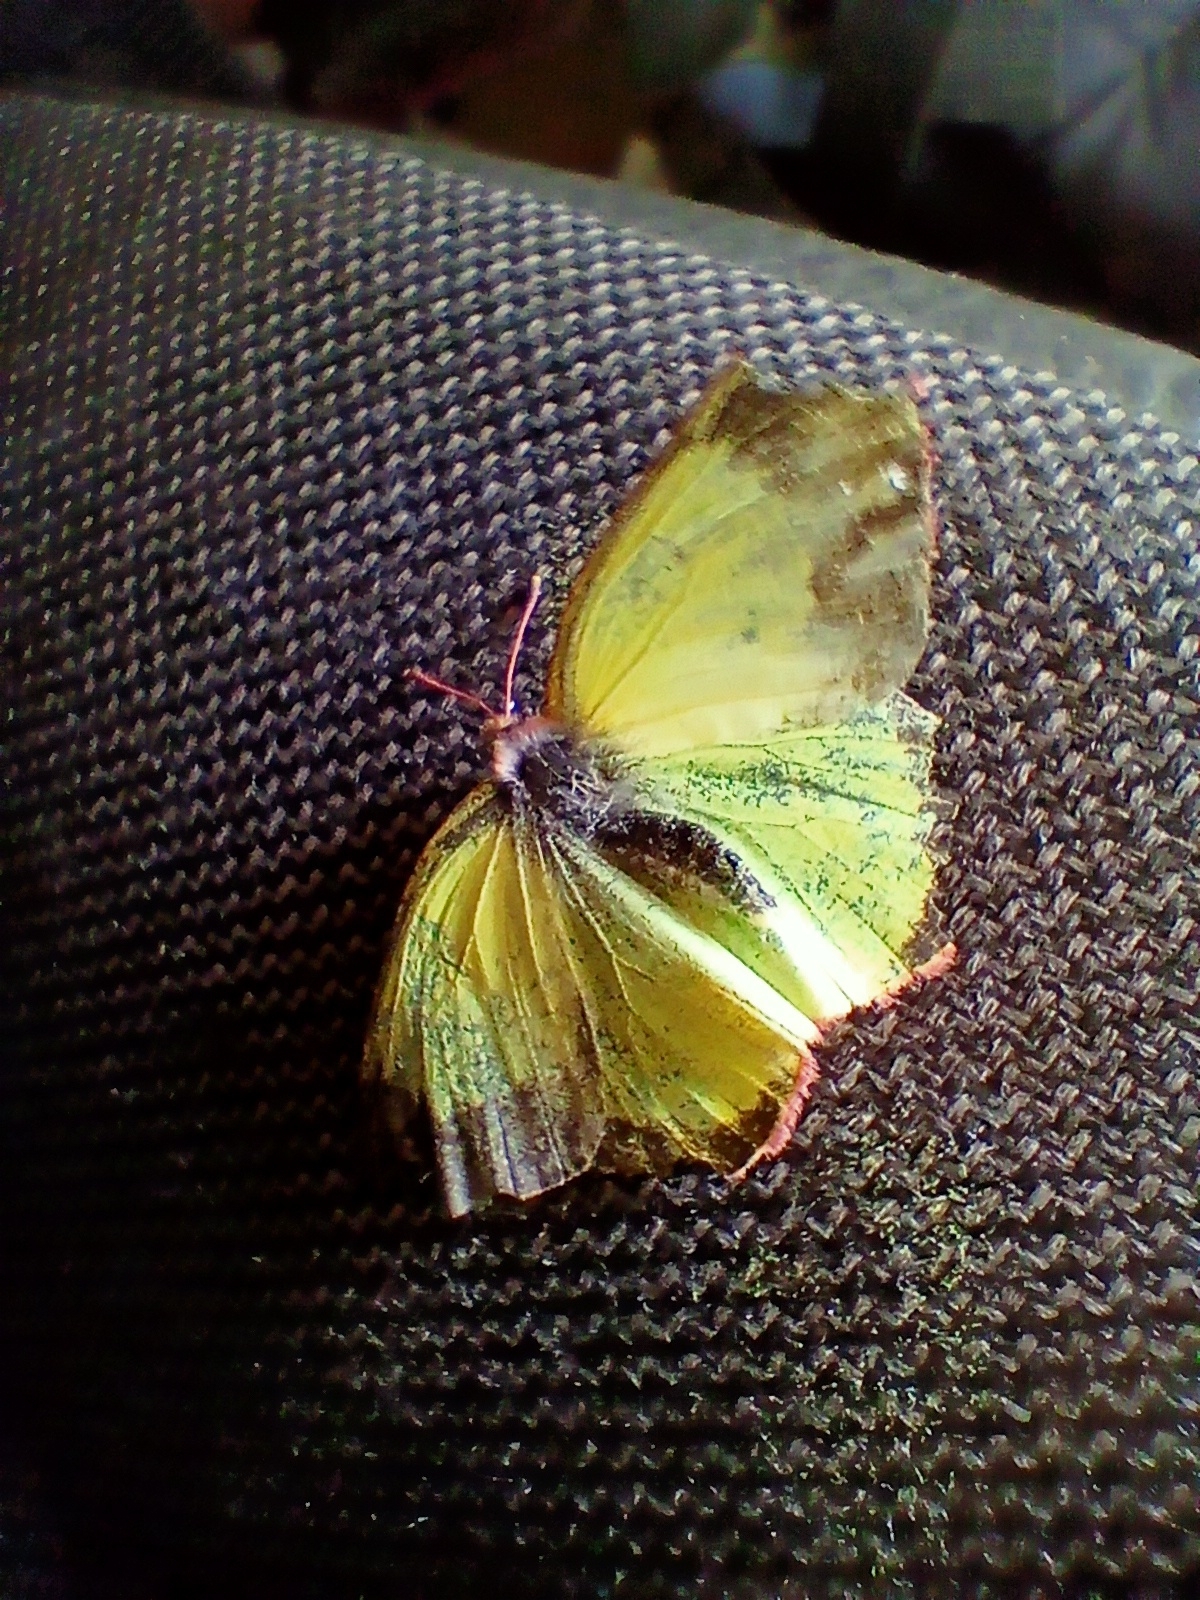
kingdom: Animalia
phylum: Arthropoda
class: Insecta
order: Lepidoptera
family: Pieridae
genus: Colias
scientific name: Colias palaeno
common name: Moorland clouded yellow
